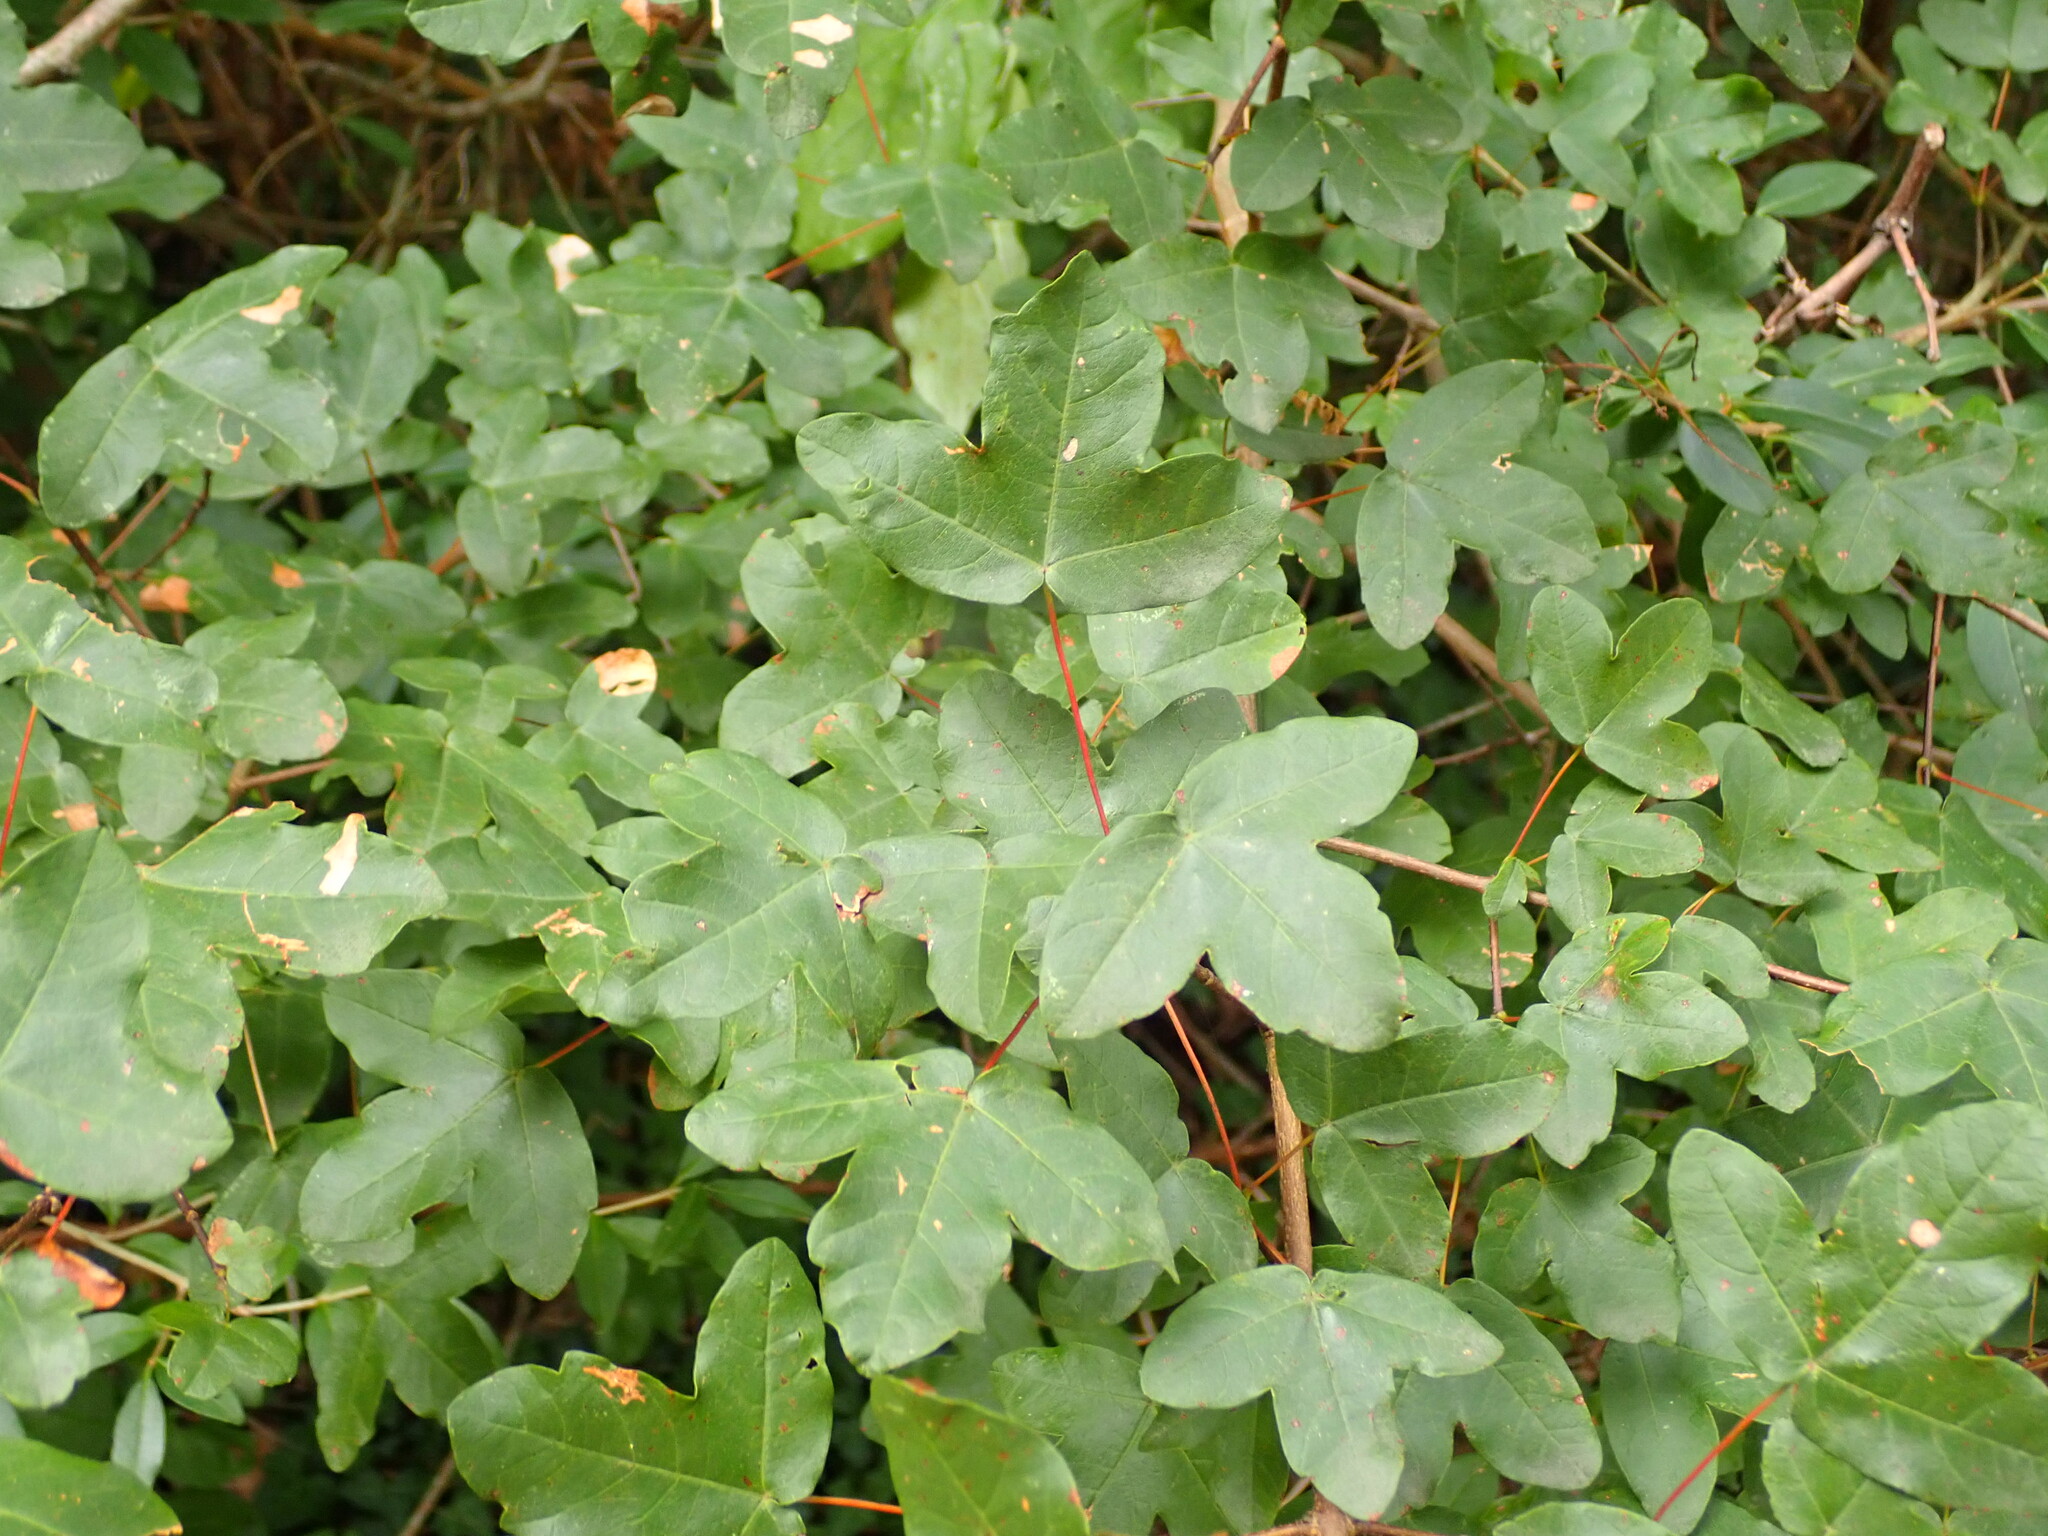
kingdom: Plantae
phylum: Tracheophyta
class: Magnoliopsida
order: Sapindales
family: Sapindaceae
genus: Acer
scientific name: Acer monspessulanum
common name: Montpellier maple
